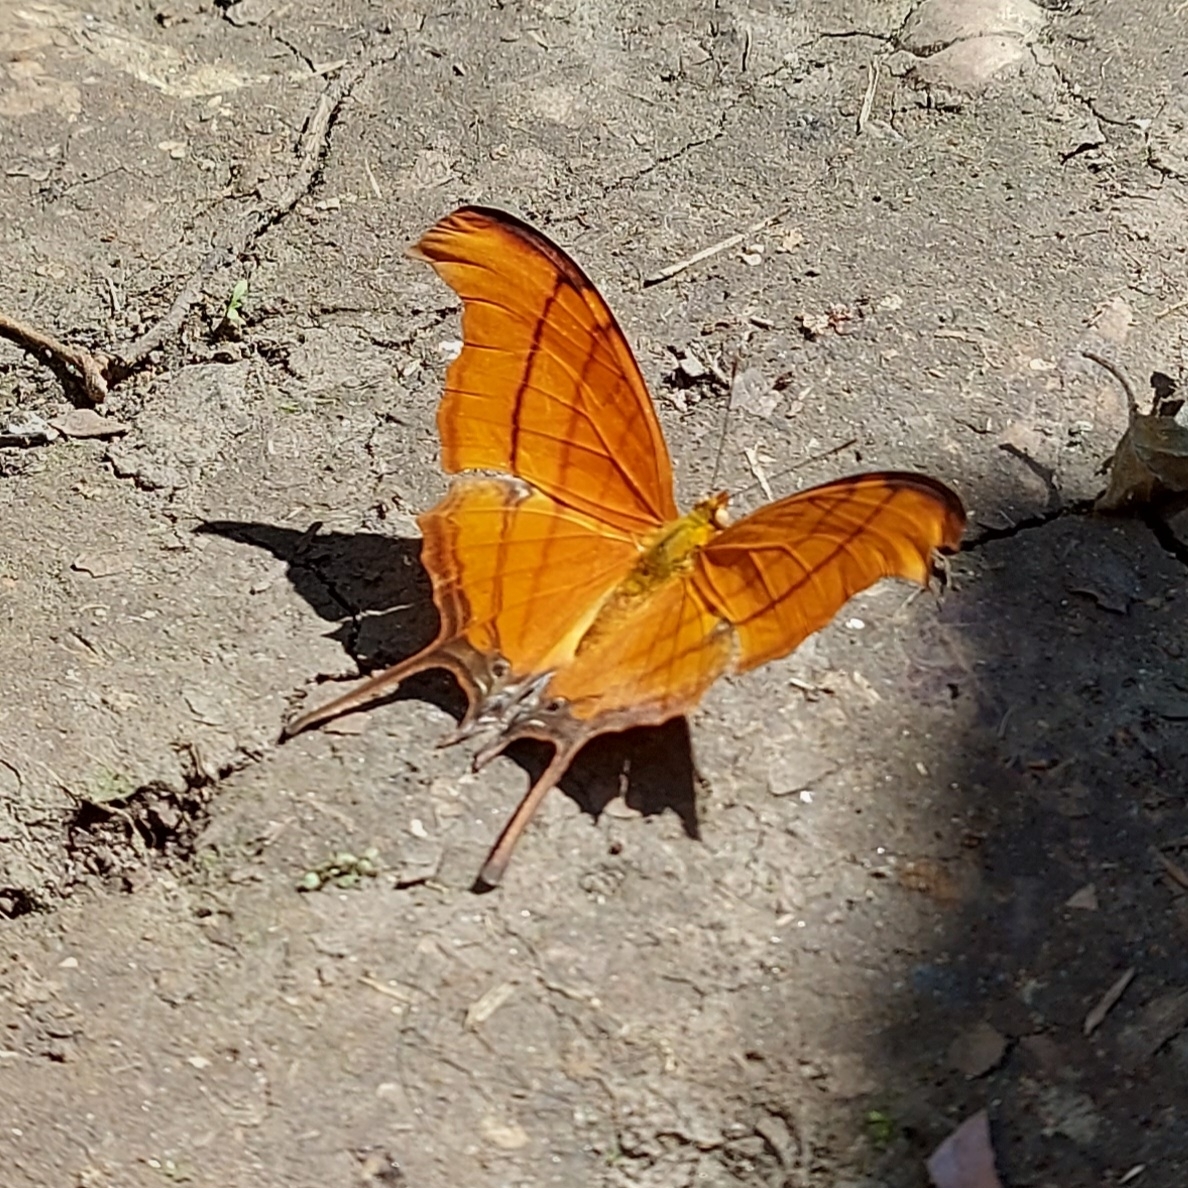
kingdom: Animalia
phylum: Arthropoda
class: Insecta
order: Lepidoptera
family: Nymphalidae
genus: Marpesia
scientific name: Marpesia petreus
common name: Red dagger wing
